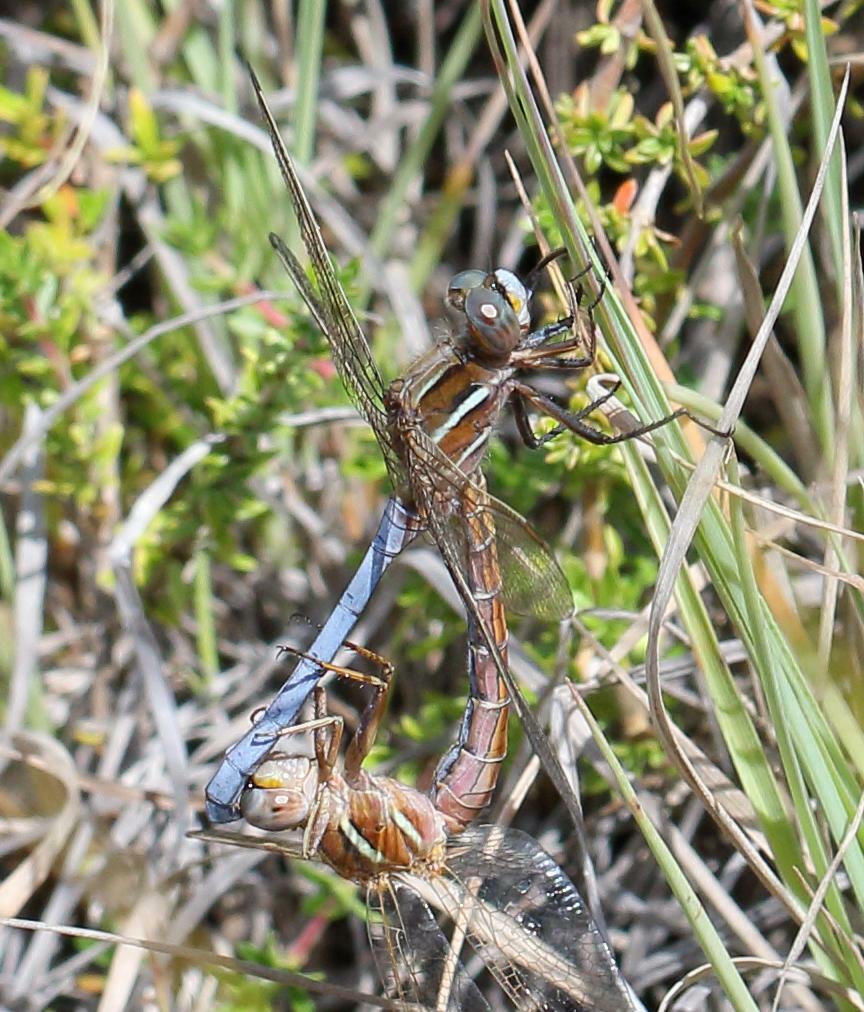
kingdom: Animalia
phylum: Arthropoda
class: Insecta
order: Odonata
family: Libellulidae
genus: Orthetrum
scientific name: Orthetrum caffrum
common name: Two-striped skimmer
